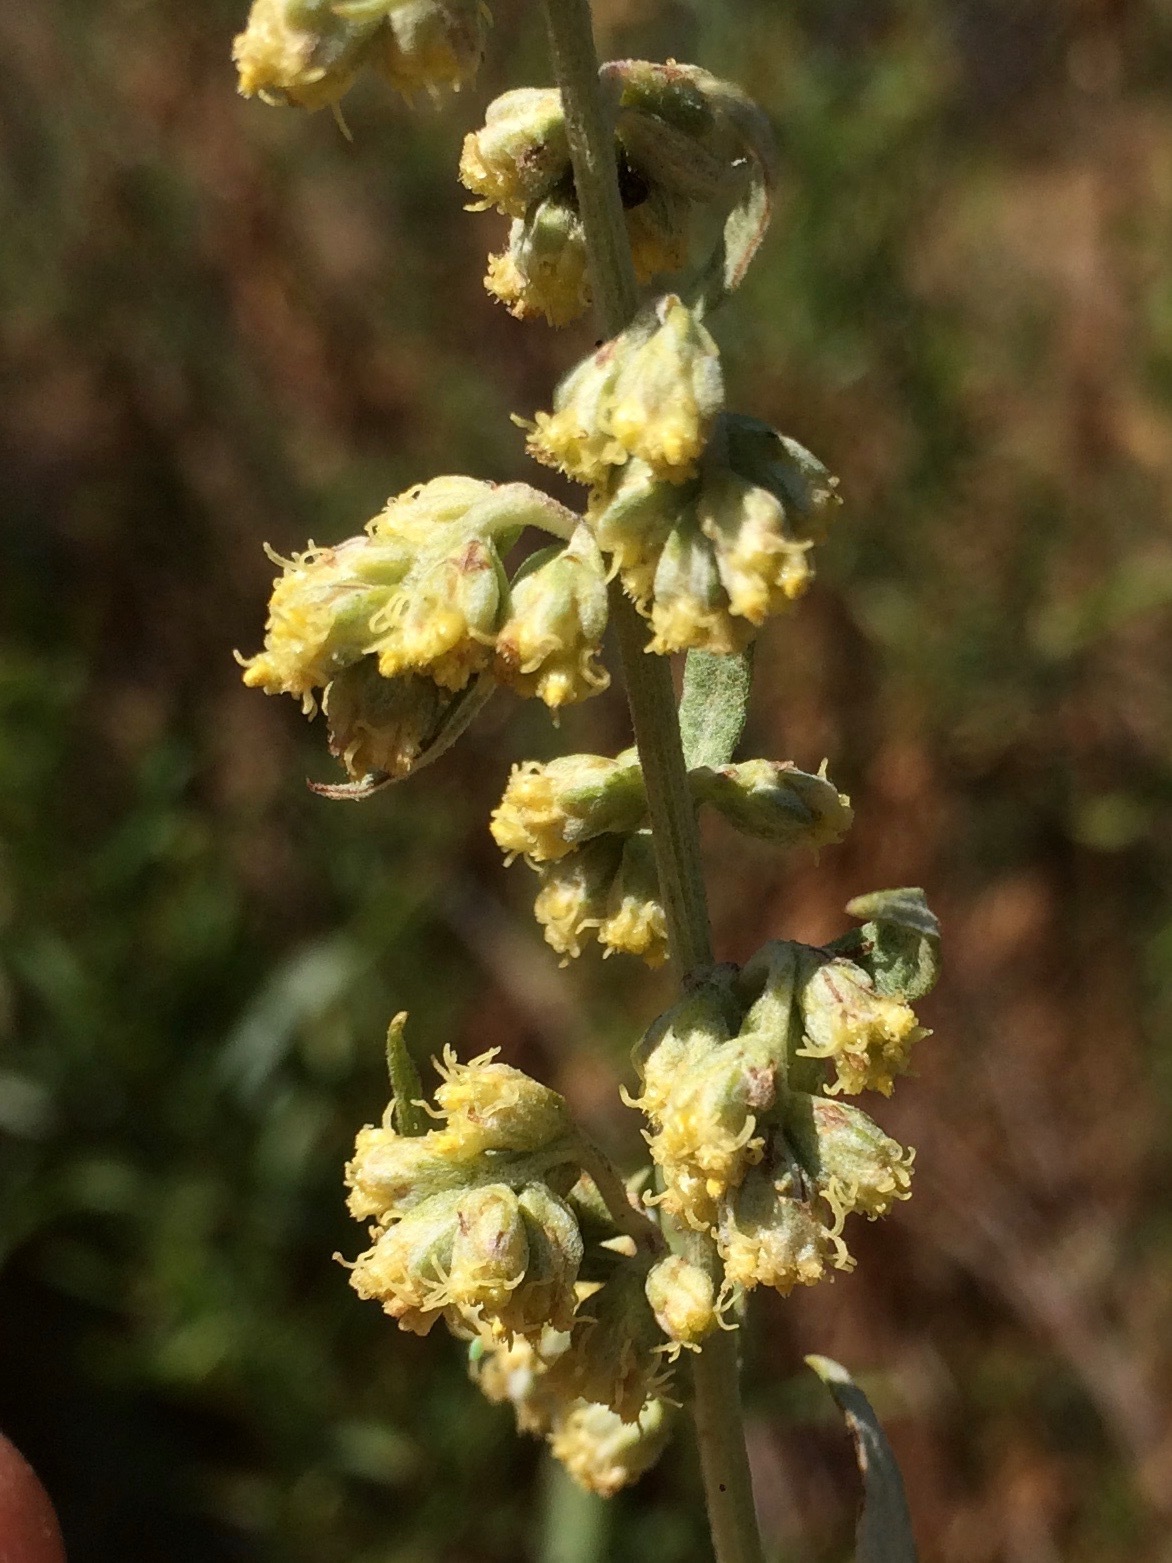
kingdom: Plantae
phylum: Tracheophyta
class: Magnoliopsida
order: Asterales
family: Asteraceae
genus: Artemisia
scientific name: Artemisia douglasiana
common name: Northwest mugwort
